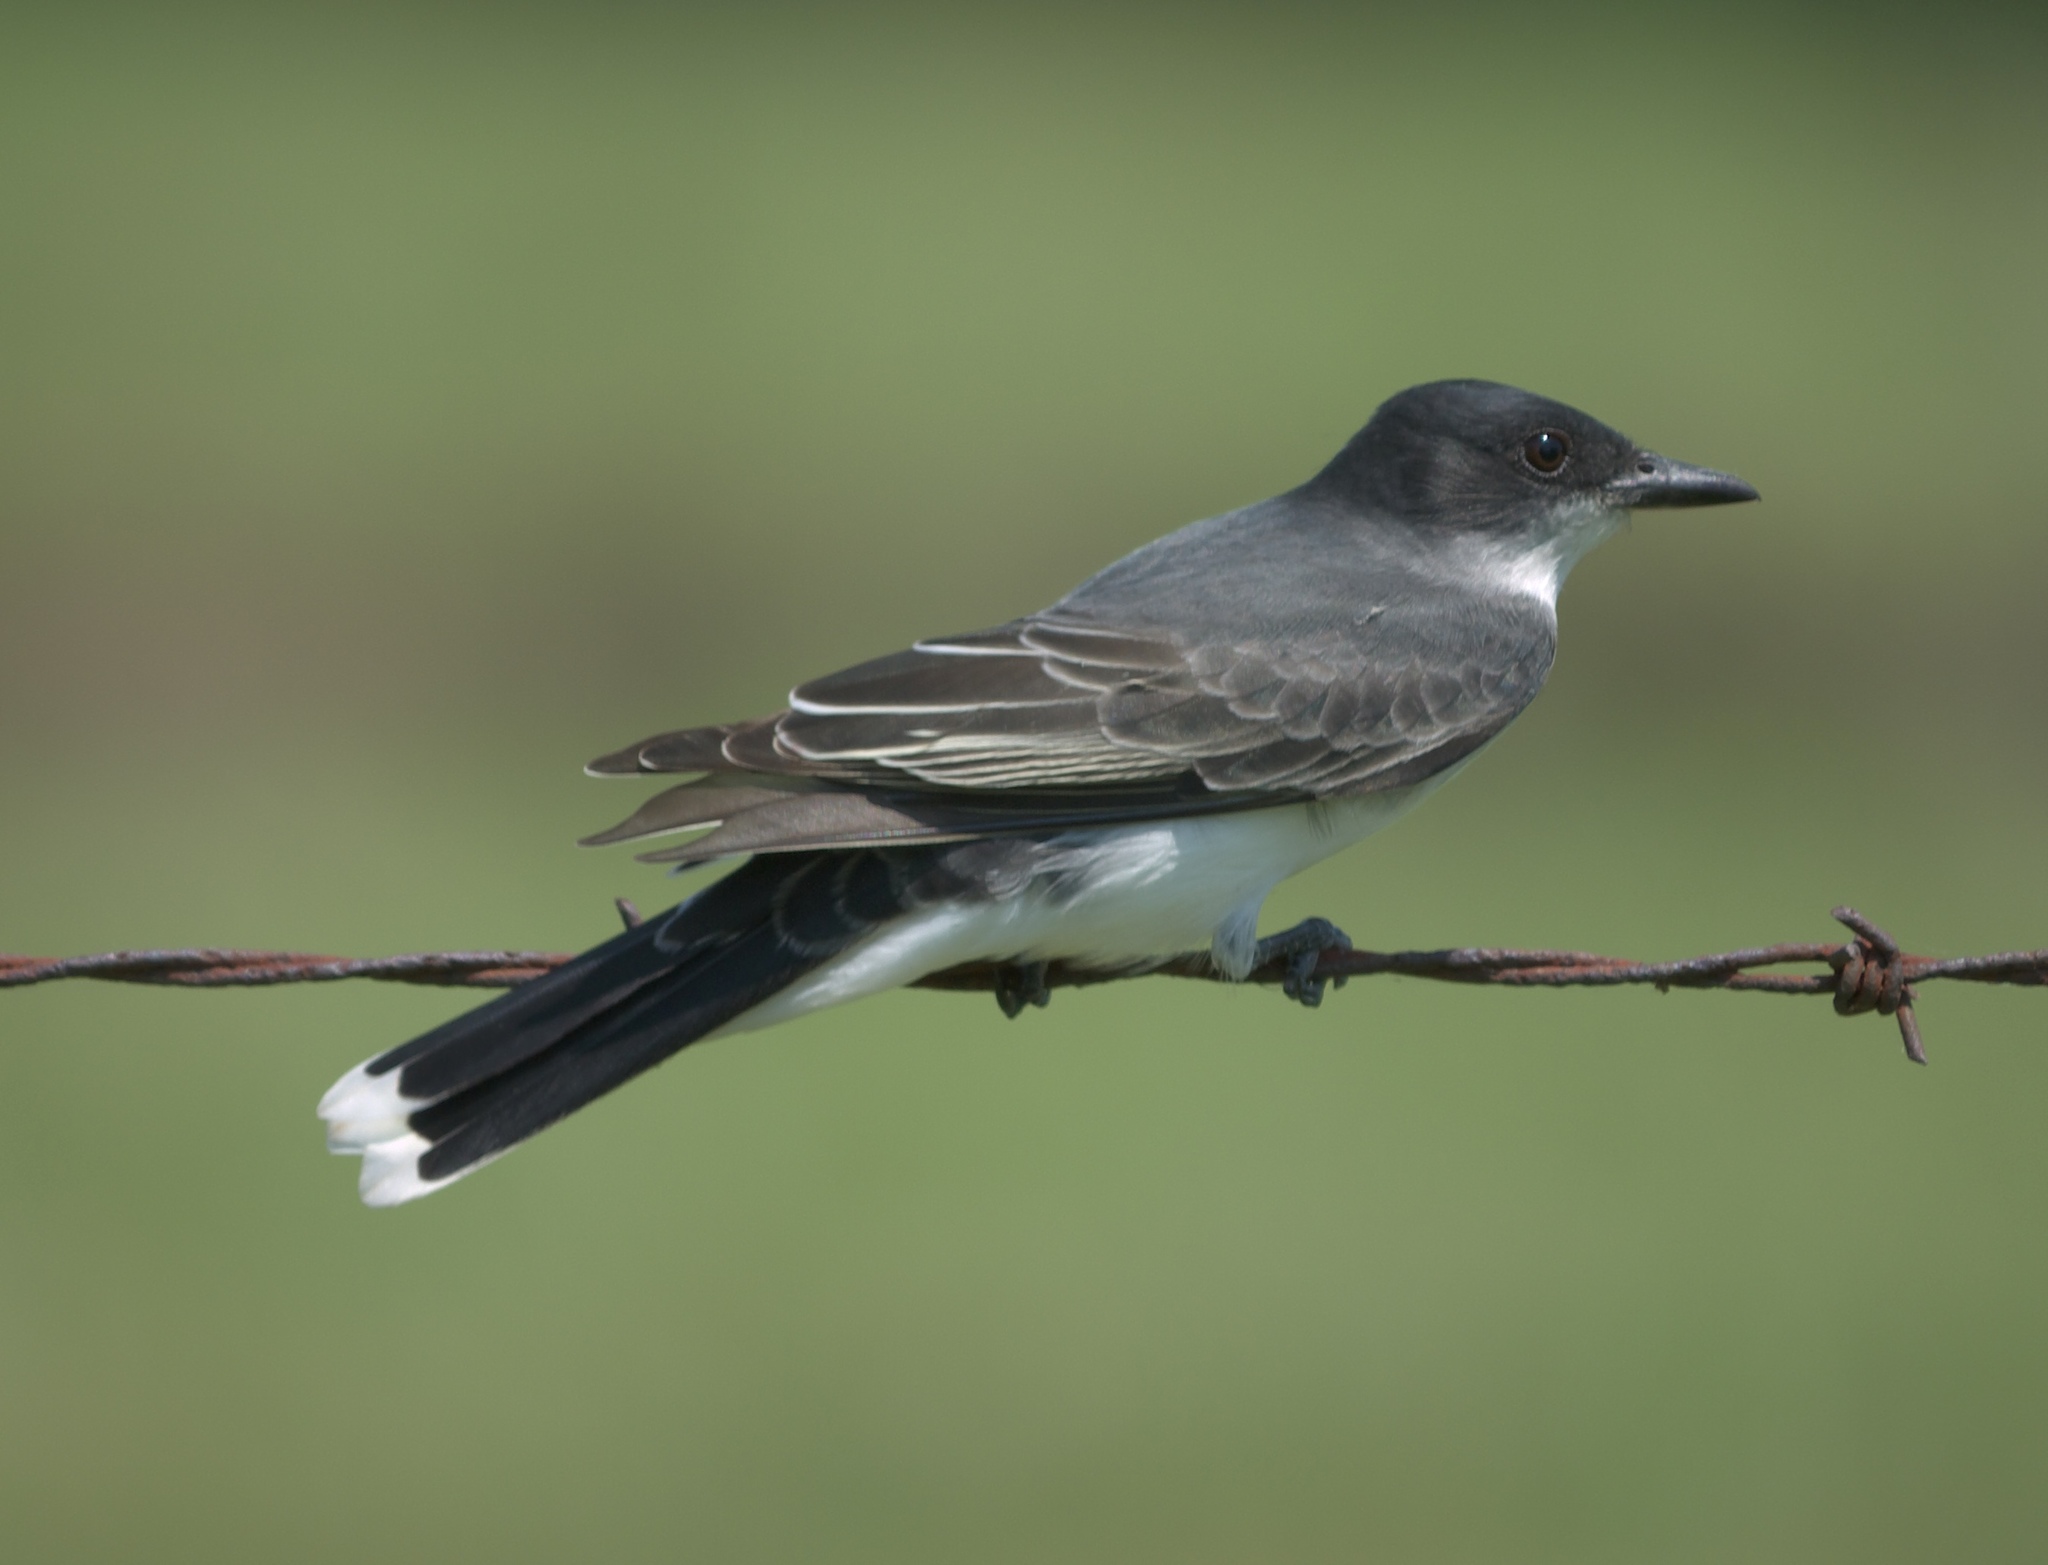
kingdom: Animalia
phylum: Chordata
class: Aves
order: Passeriformes
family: Tyrannidae
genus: Tyrannus
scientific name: Tyrannus tyrannus
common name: Eastern kingbird
